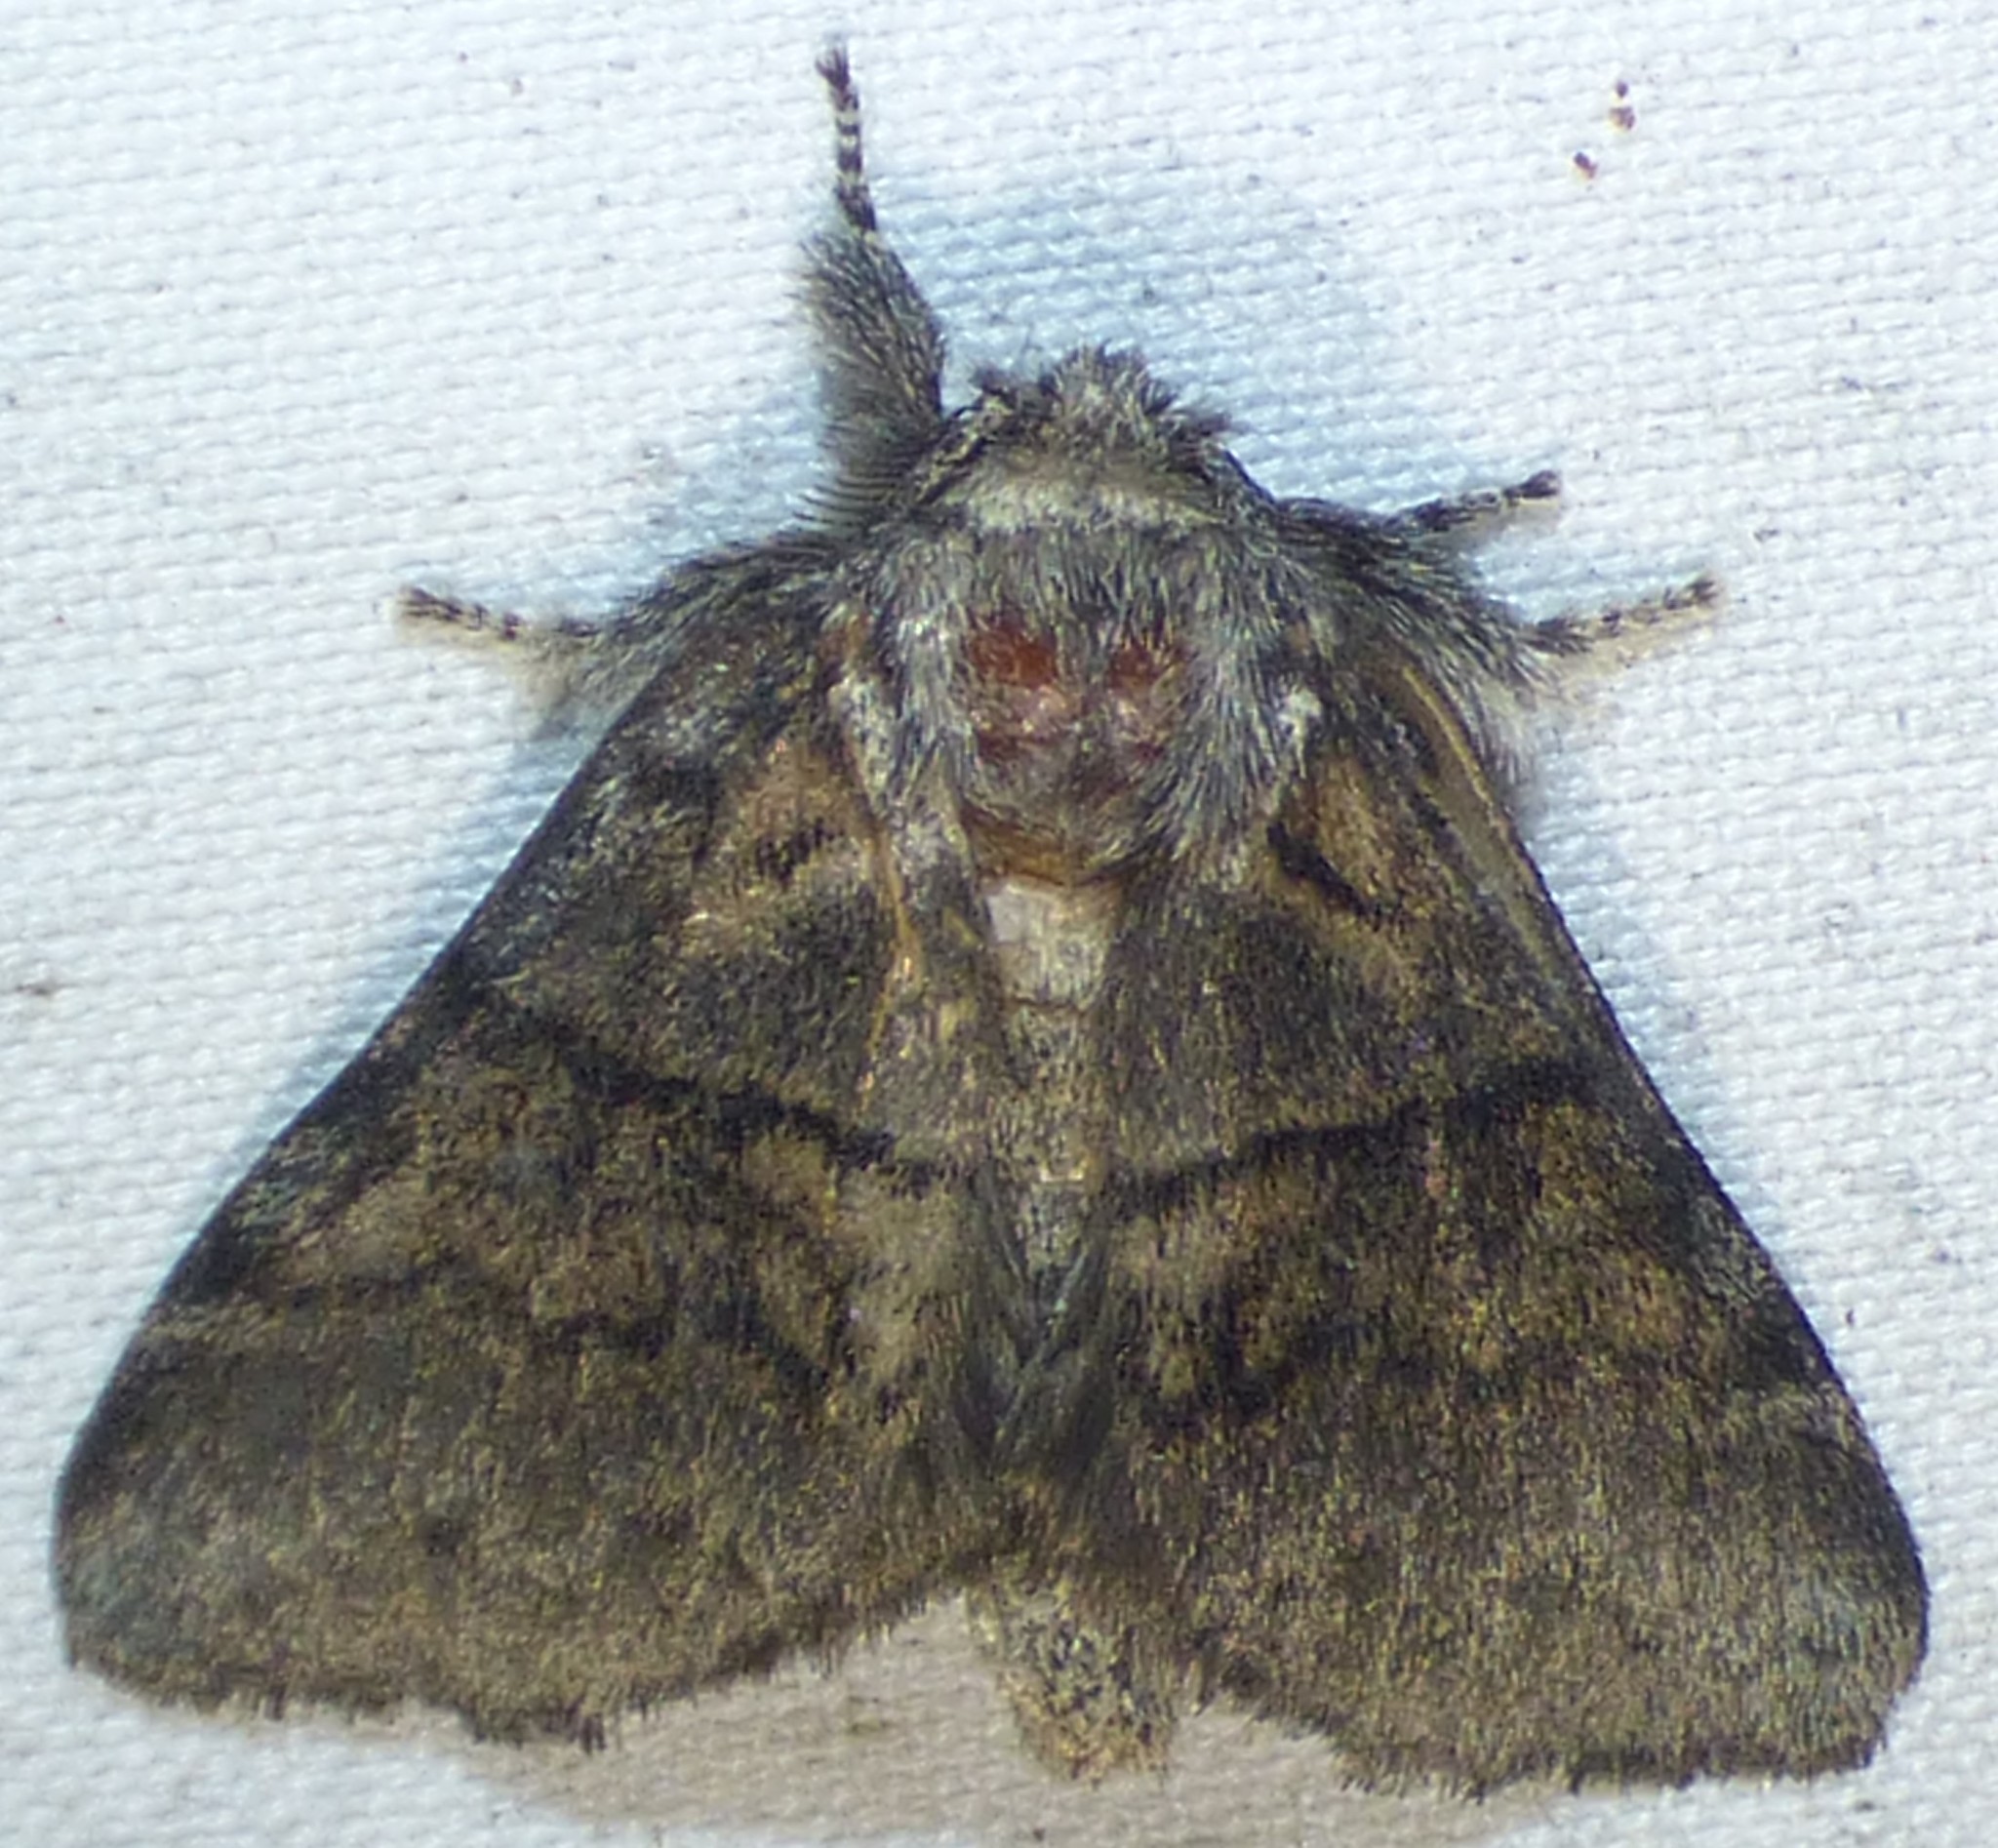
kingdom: Animalia
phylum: Arthropoda
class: Insecta
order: Lepidoptera
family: Notodontidae
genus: Gluphisia
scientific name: Gluphisia septentrionis
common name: Common gluphisia
